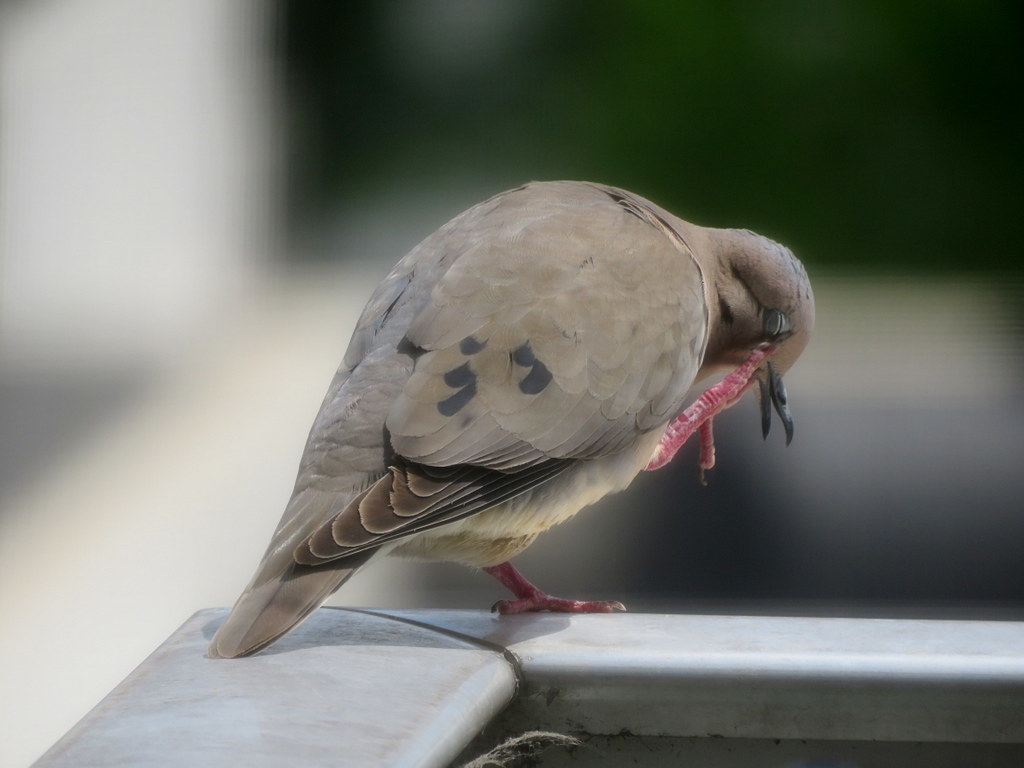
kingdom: Animalia
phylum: Chordata
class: Aves
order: Columbiformes
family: Columbidae
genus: Zenaida
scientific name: Zenaida auriculata
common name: Eared dove
